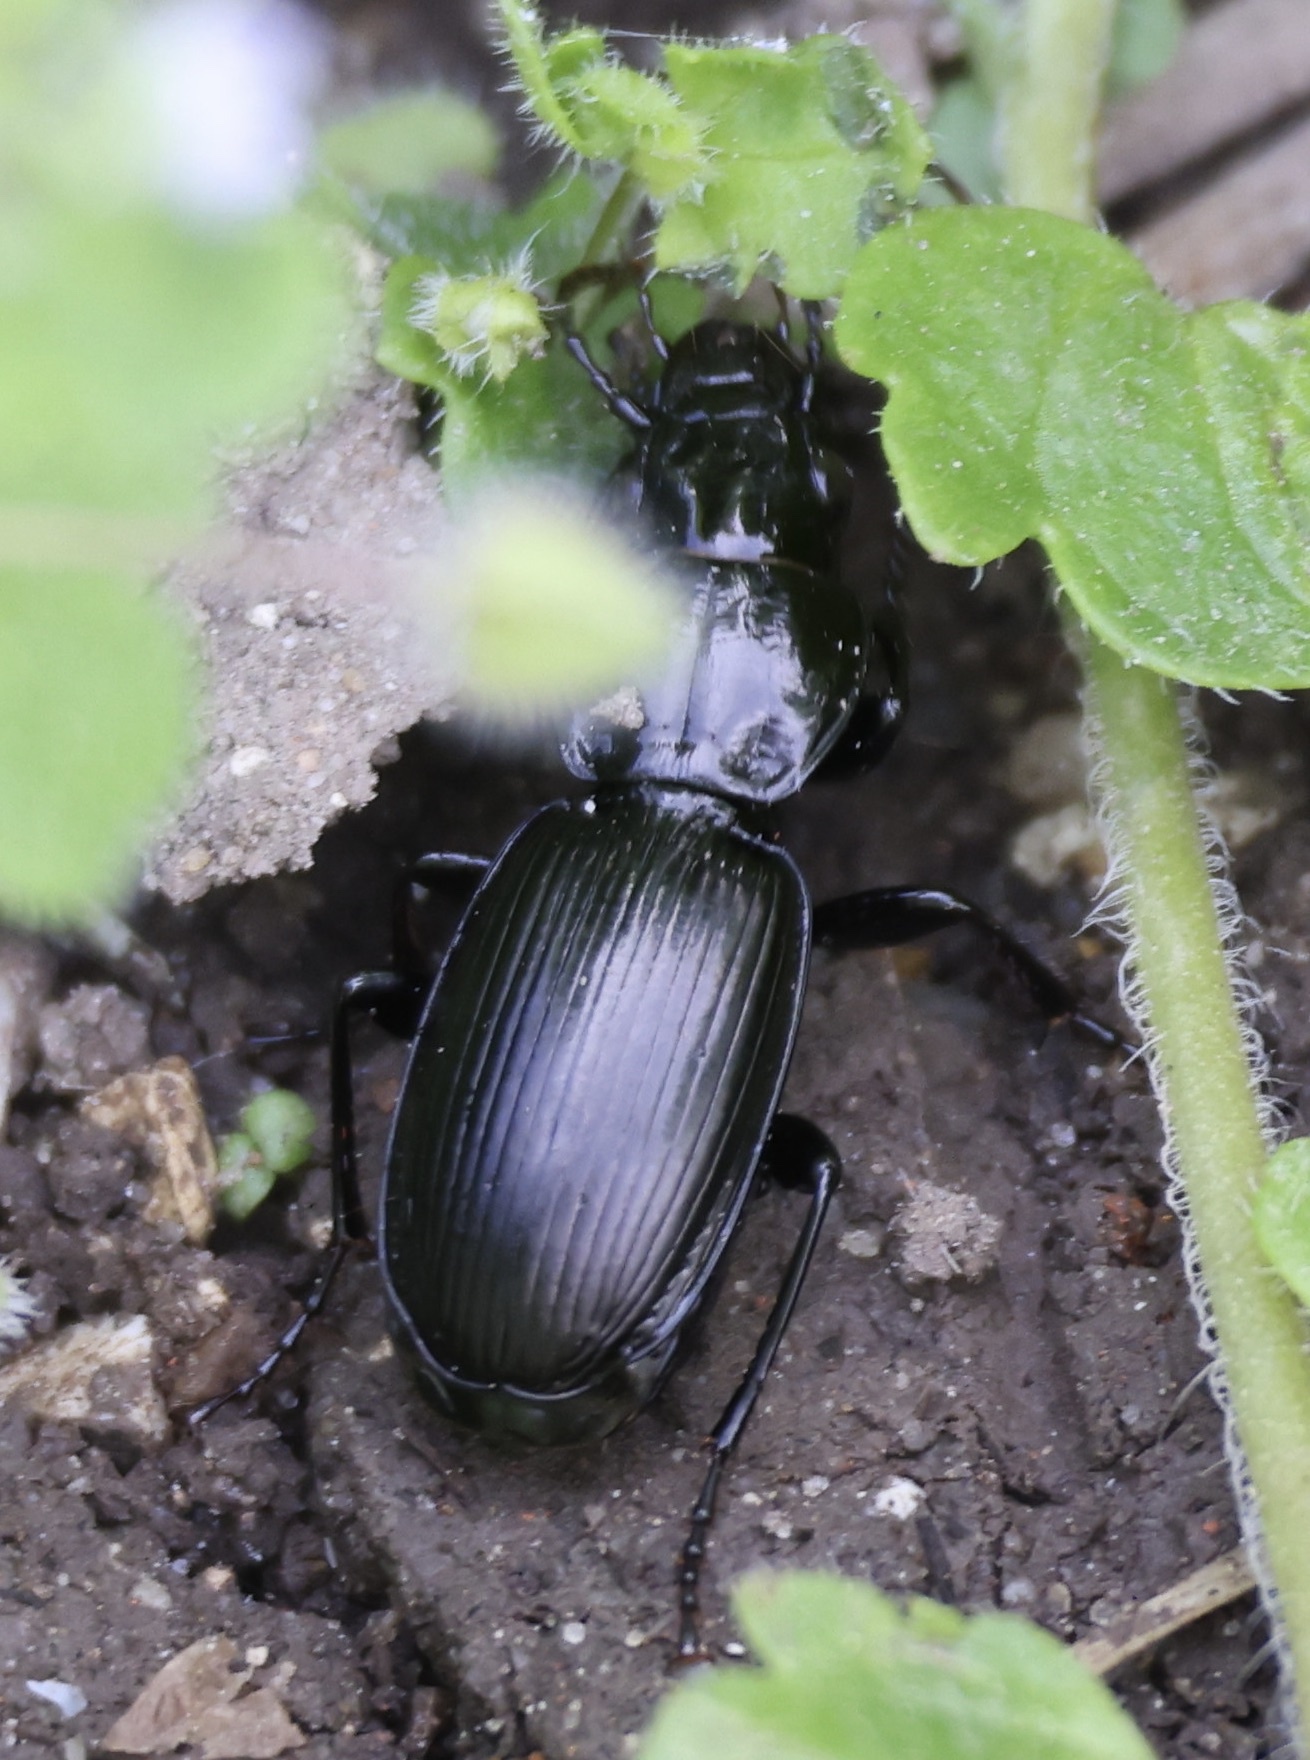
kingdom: Animalia
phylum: Arthropoda
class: Insecta
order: Coleoptera
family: Carabidae
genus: Pterostichus
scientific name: Pterostichus madidus
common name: Black clock
